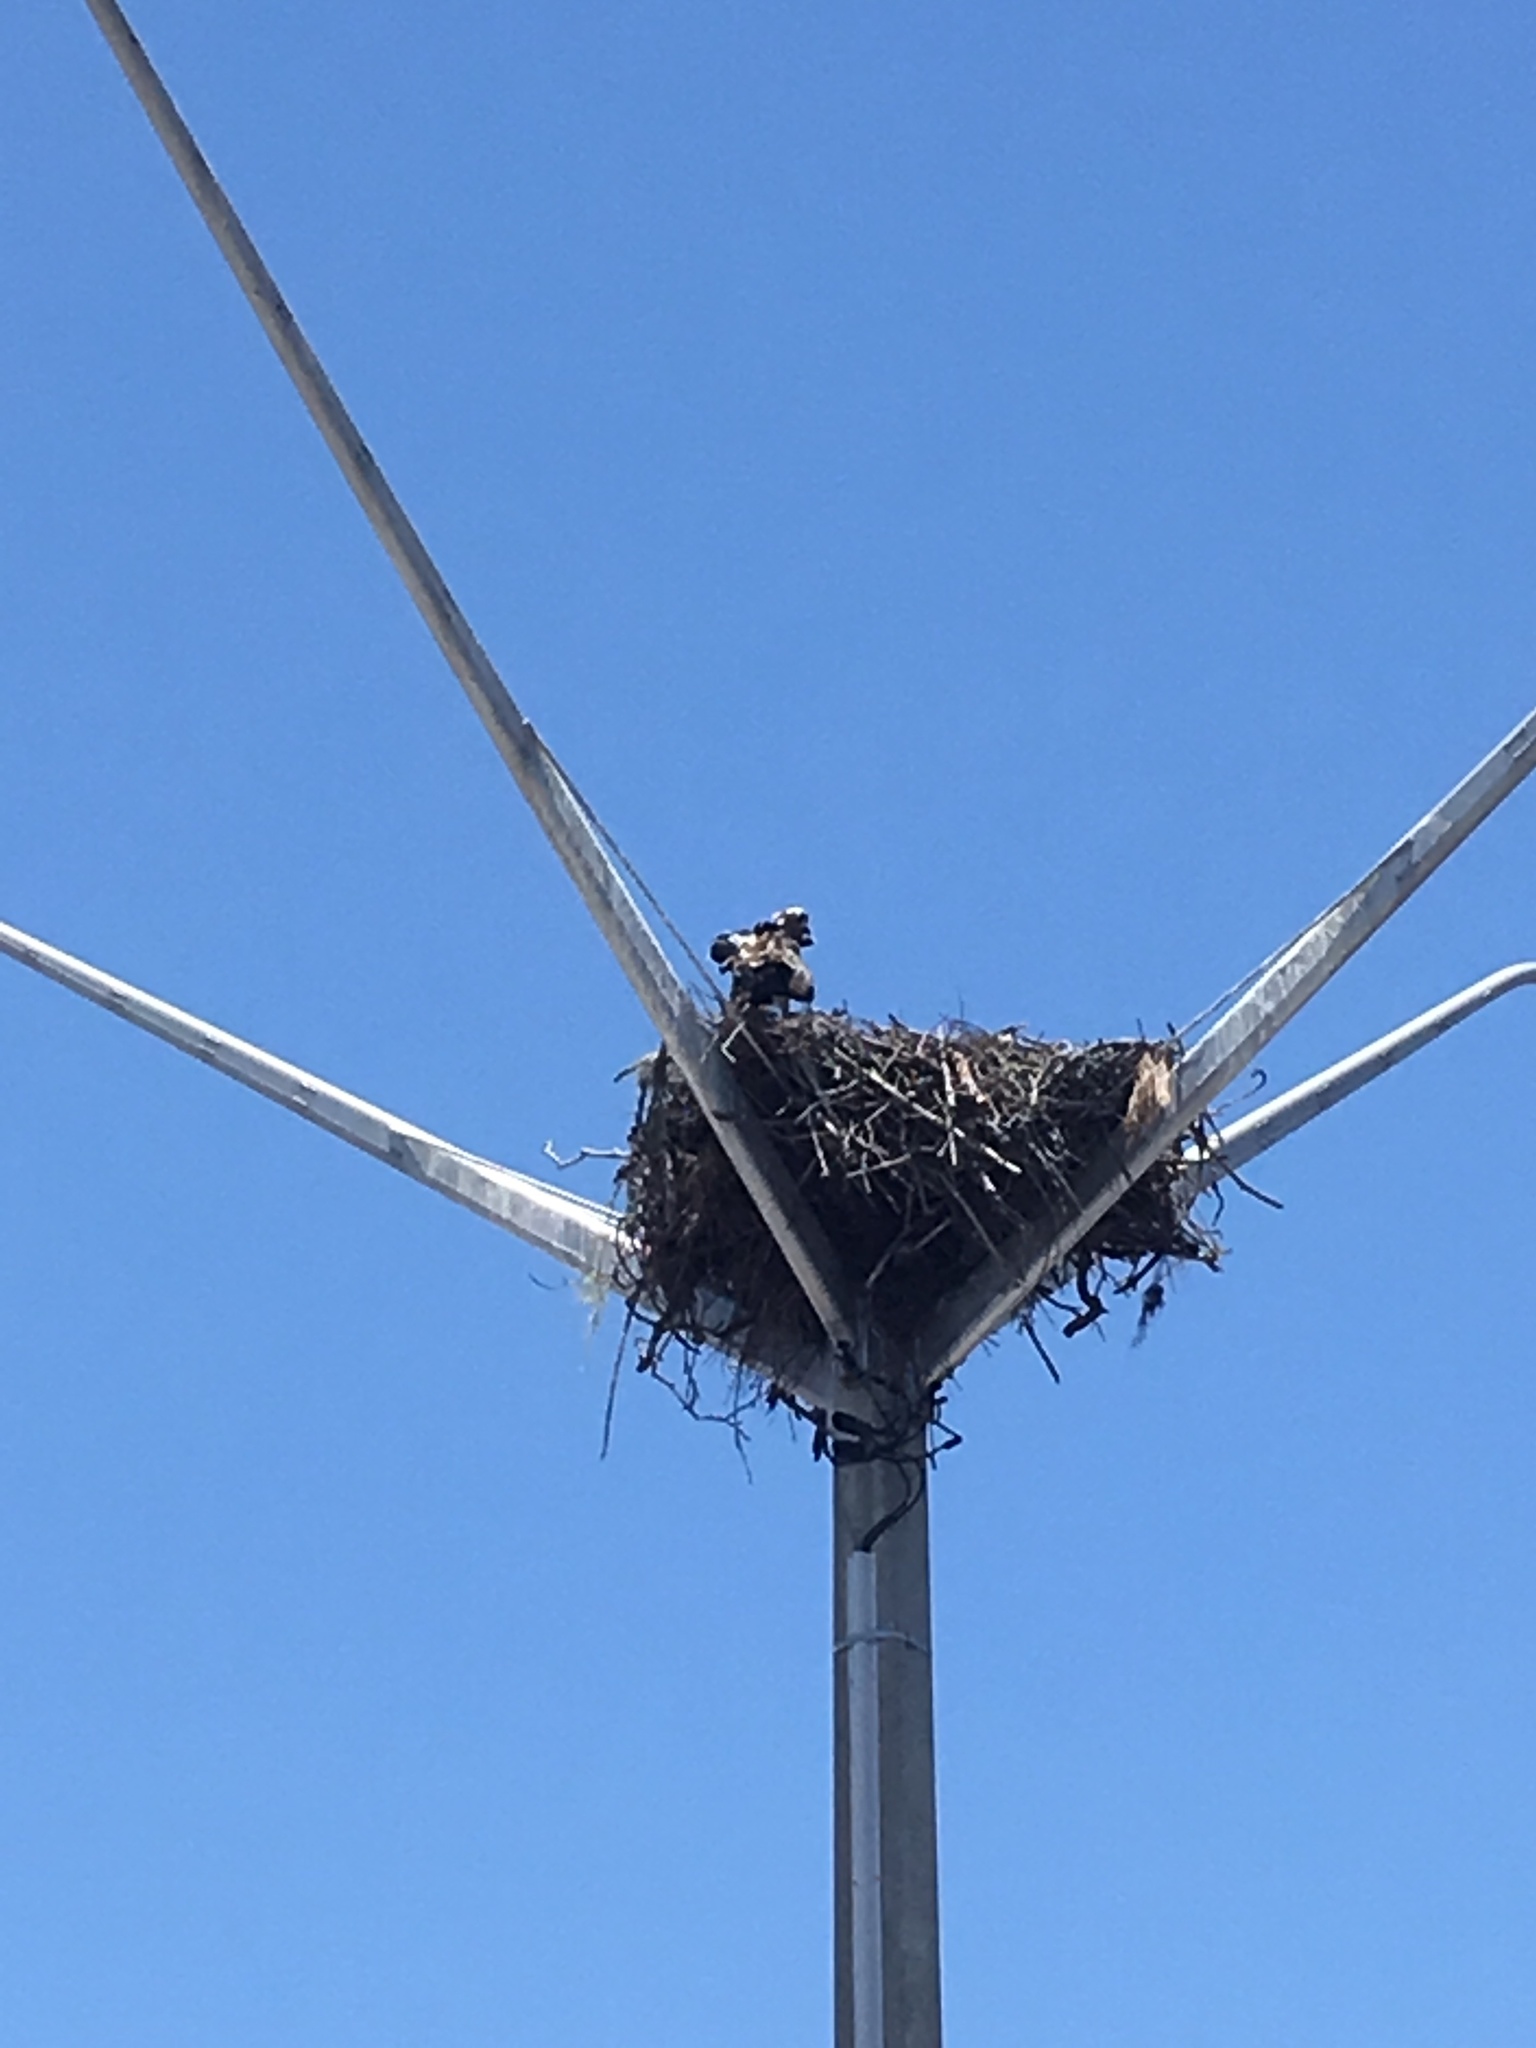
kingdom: Animalia
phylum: Chordata
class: Aves
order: Accipitriformes
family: Pandionidae
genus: Pandion
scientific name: Pandion haliaetus
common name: Osprey
